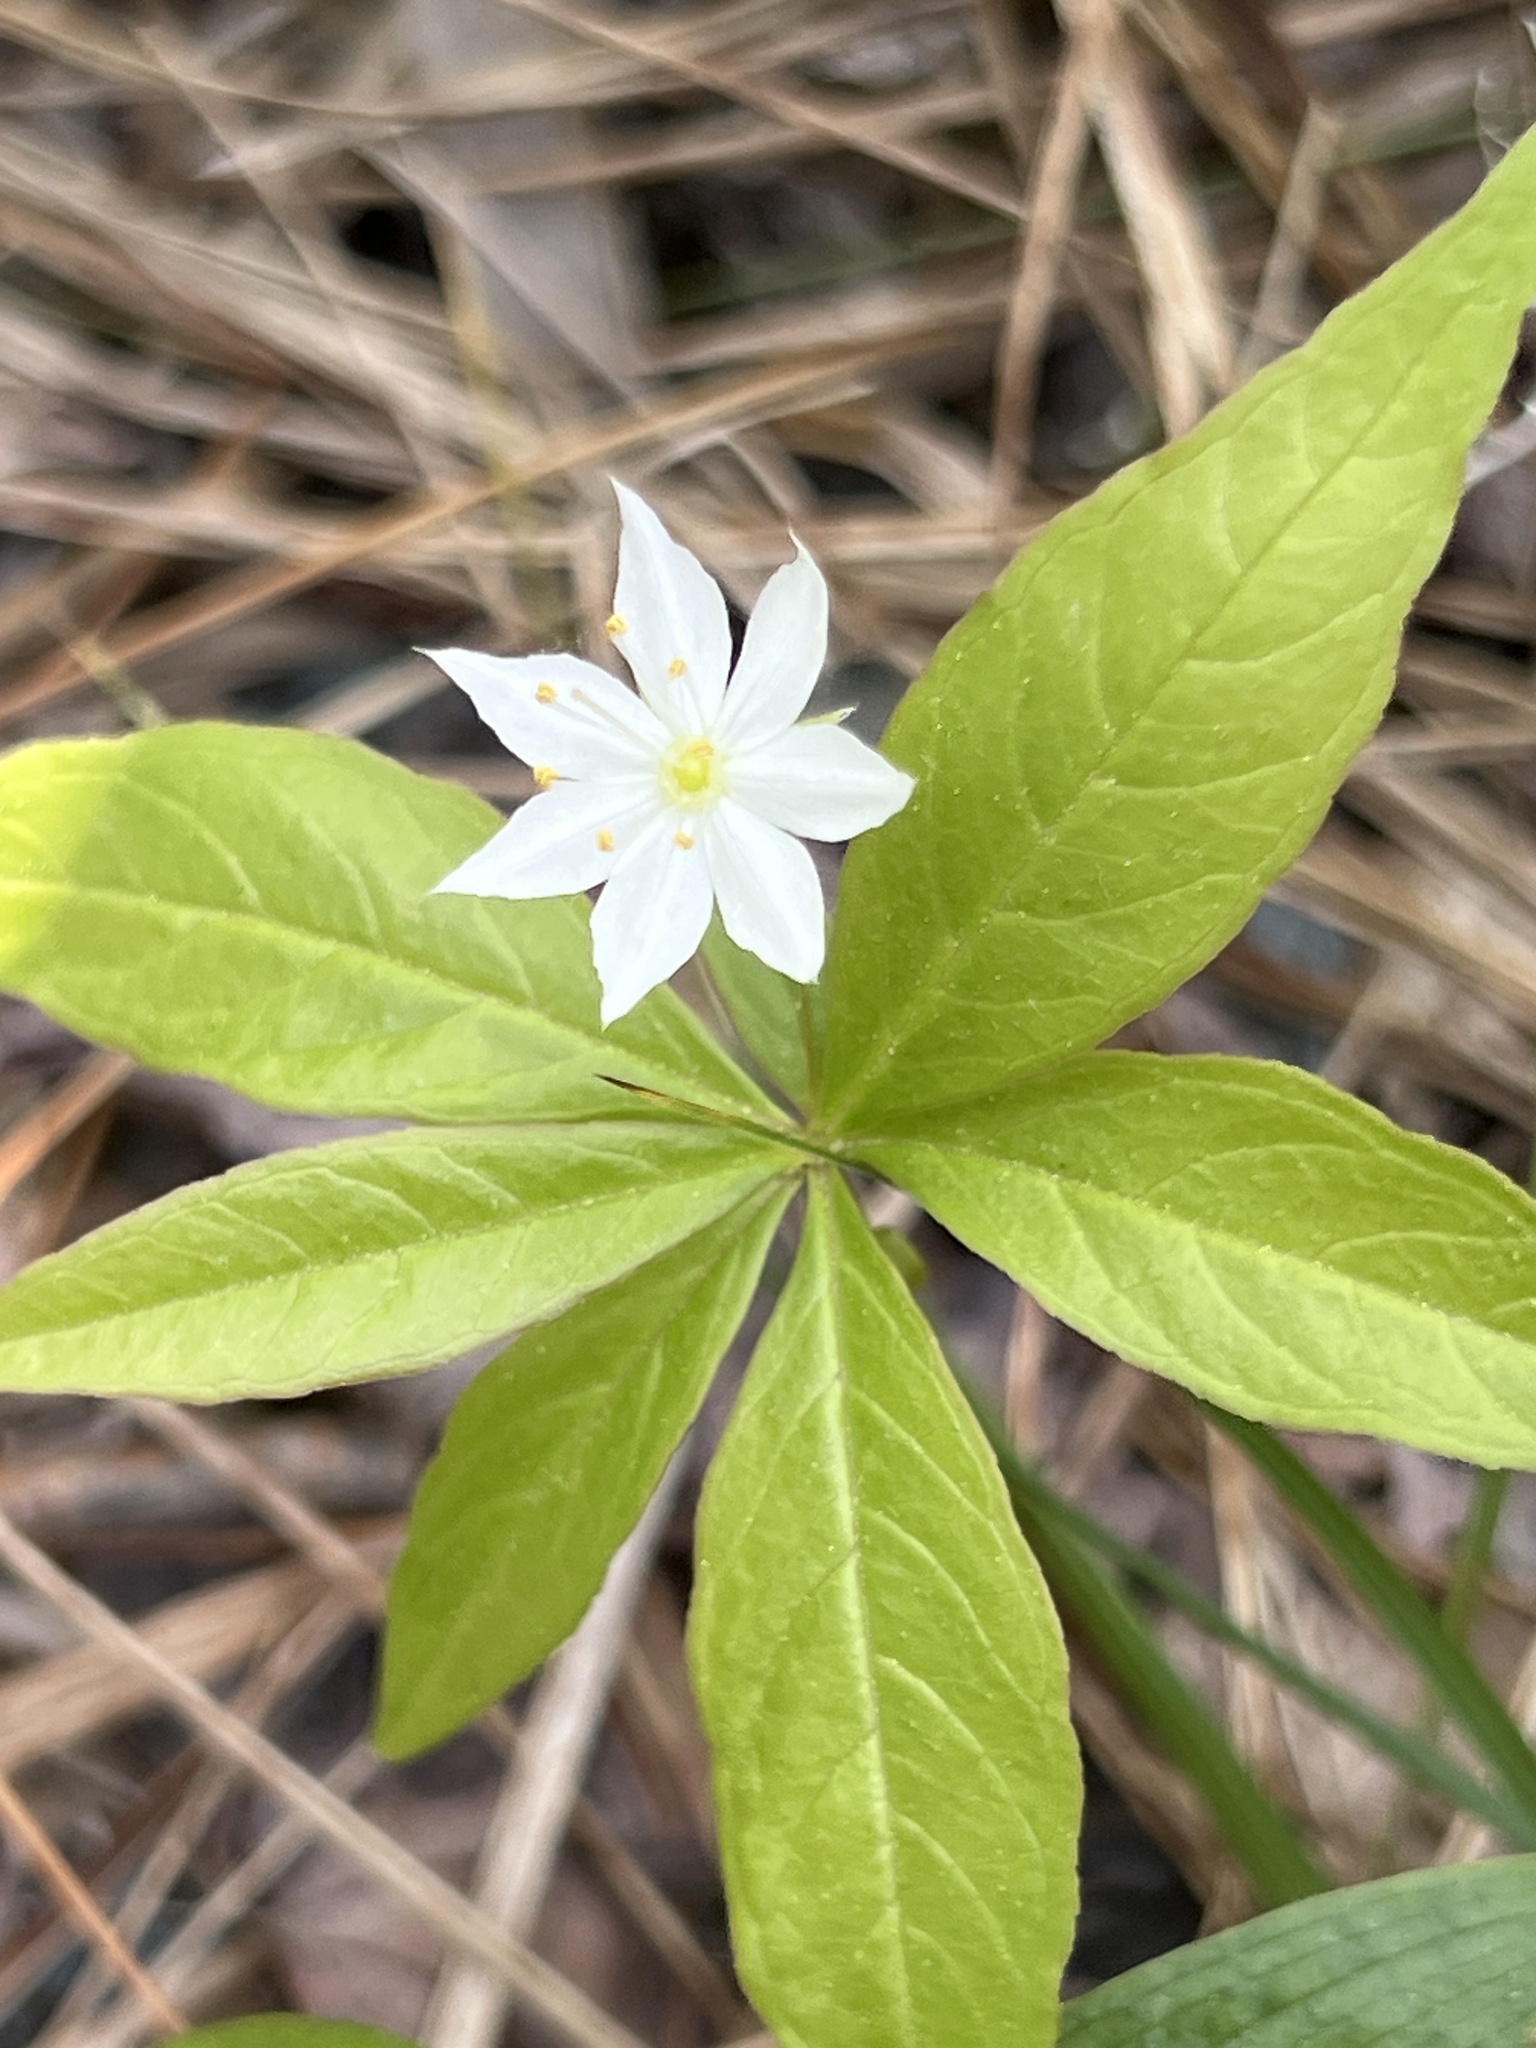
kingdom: Plantae
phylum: Tracheophyta
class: Magnoliopsida
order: Ericales
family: Primulaceae
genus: Lysimachia
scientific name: Lysimachia borealis
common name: American starflower
